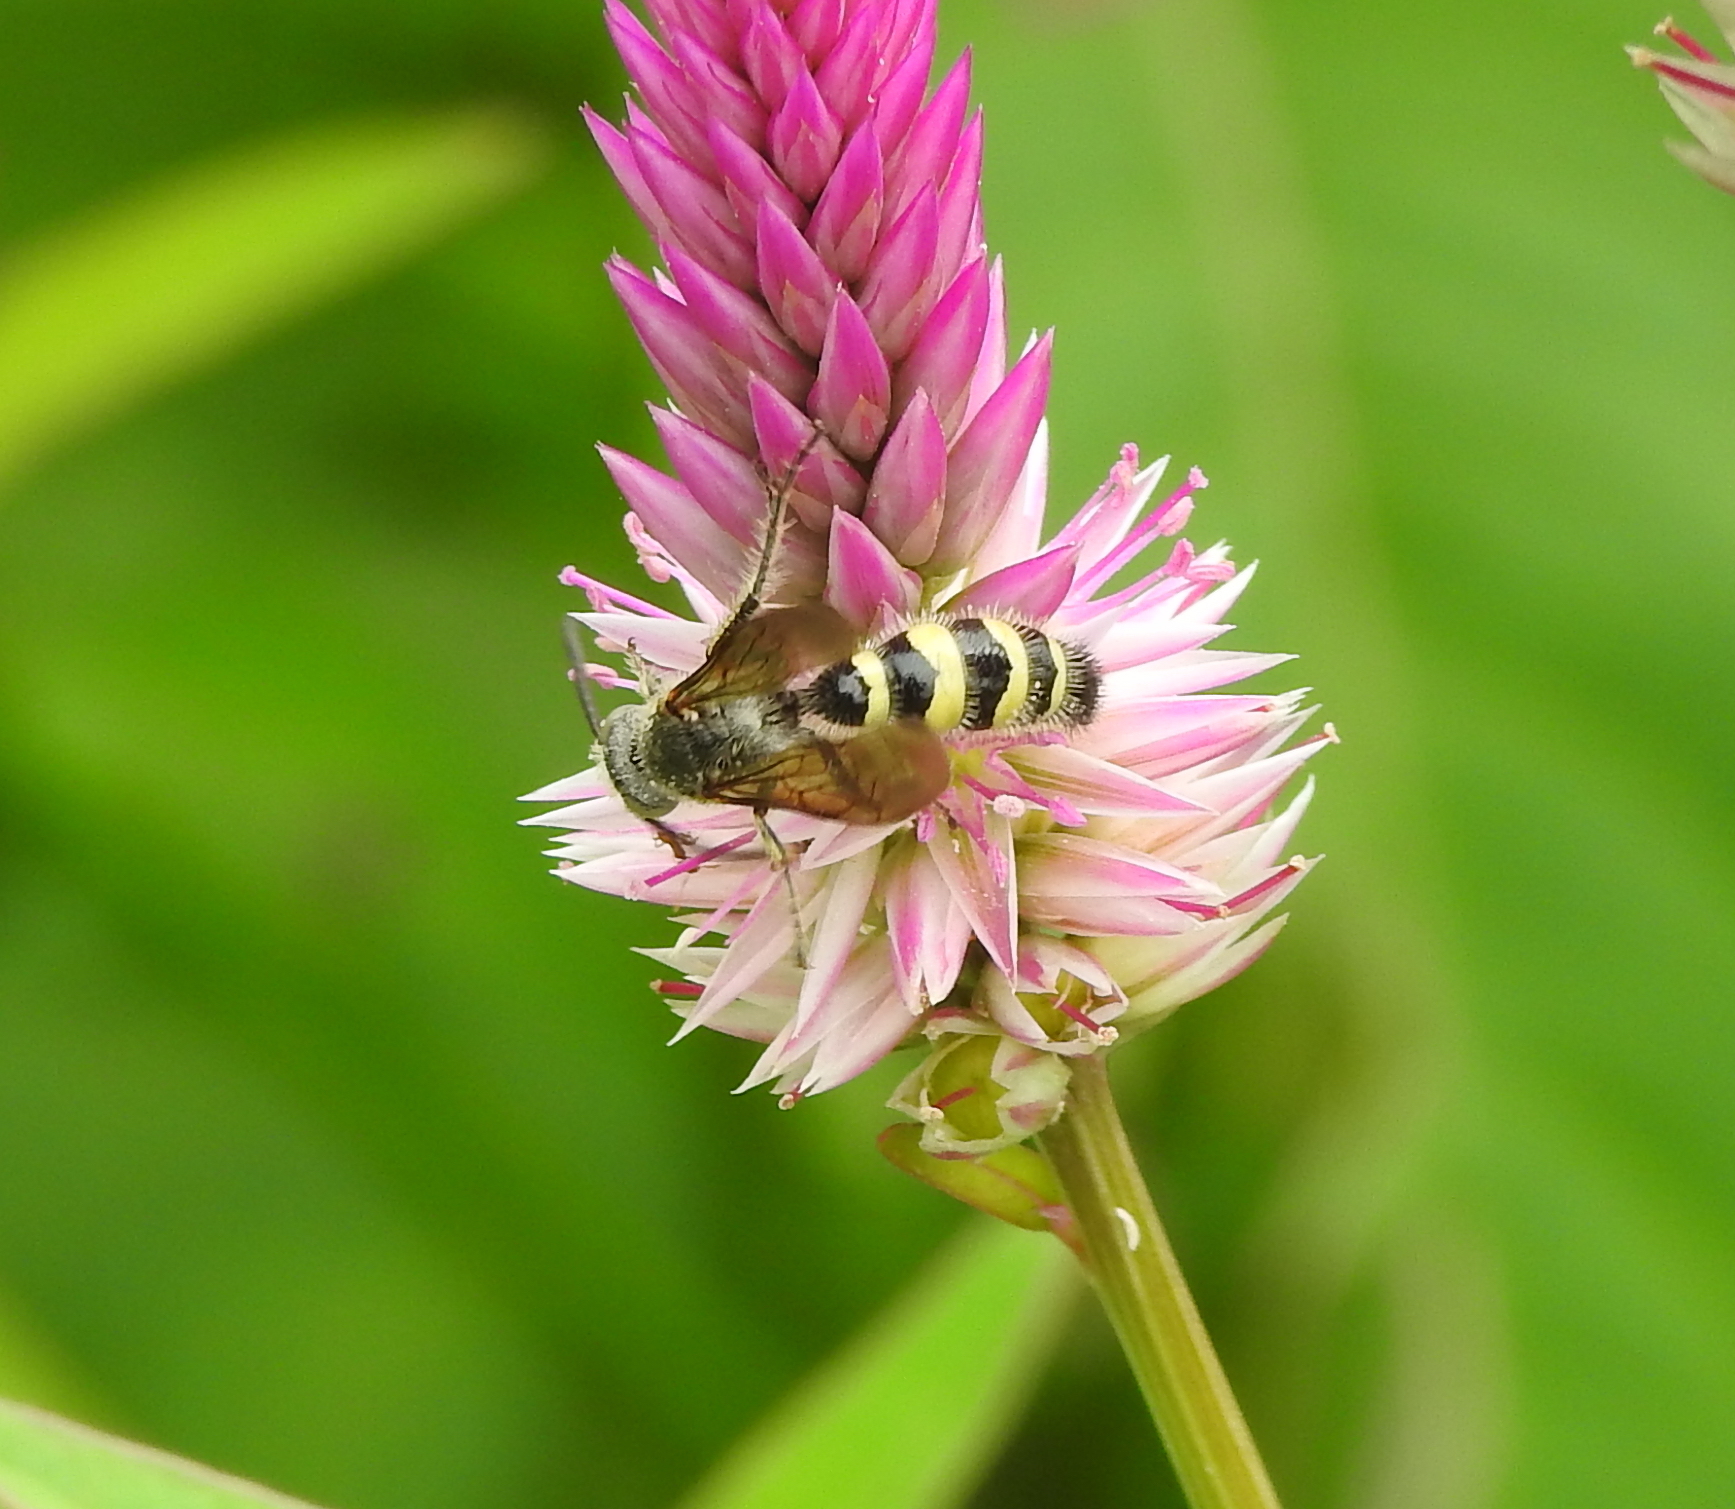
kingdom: Animalia
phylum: Arthropoda
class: Insecta
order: Hymenoptera
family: Scoliidae
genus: Campsomeriella
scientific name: Campsomeriella collaris
